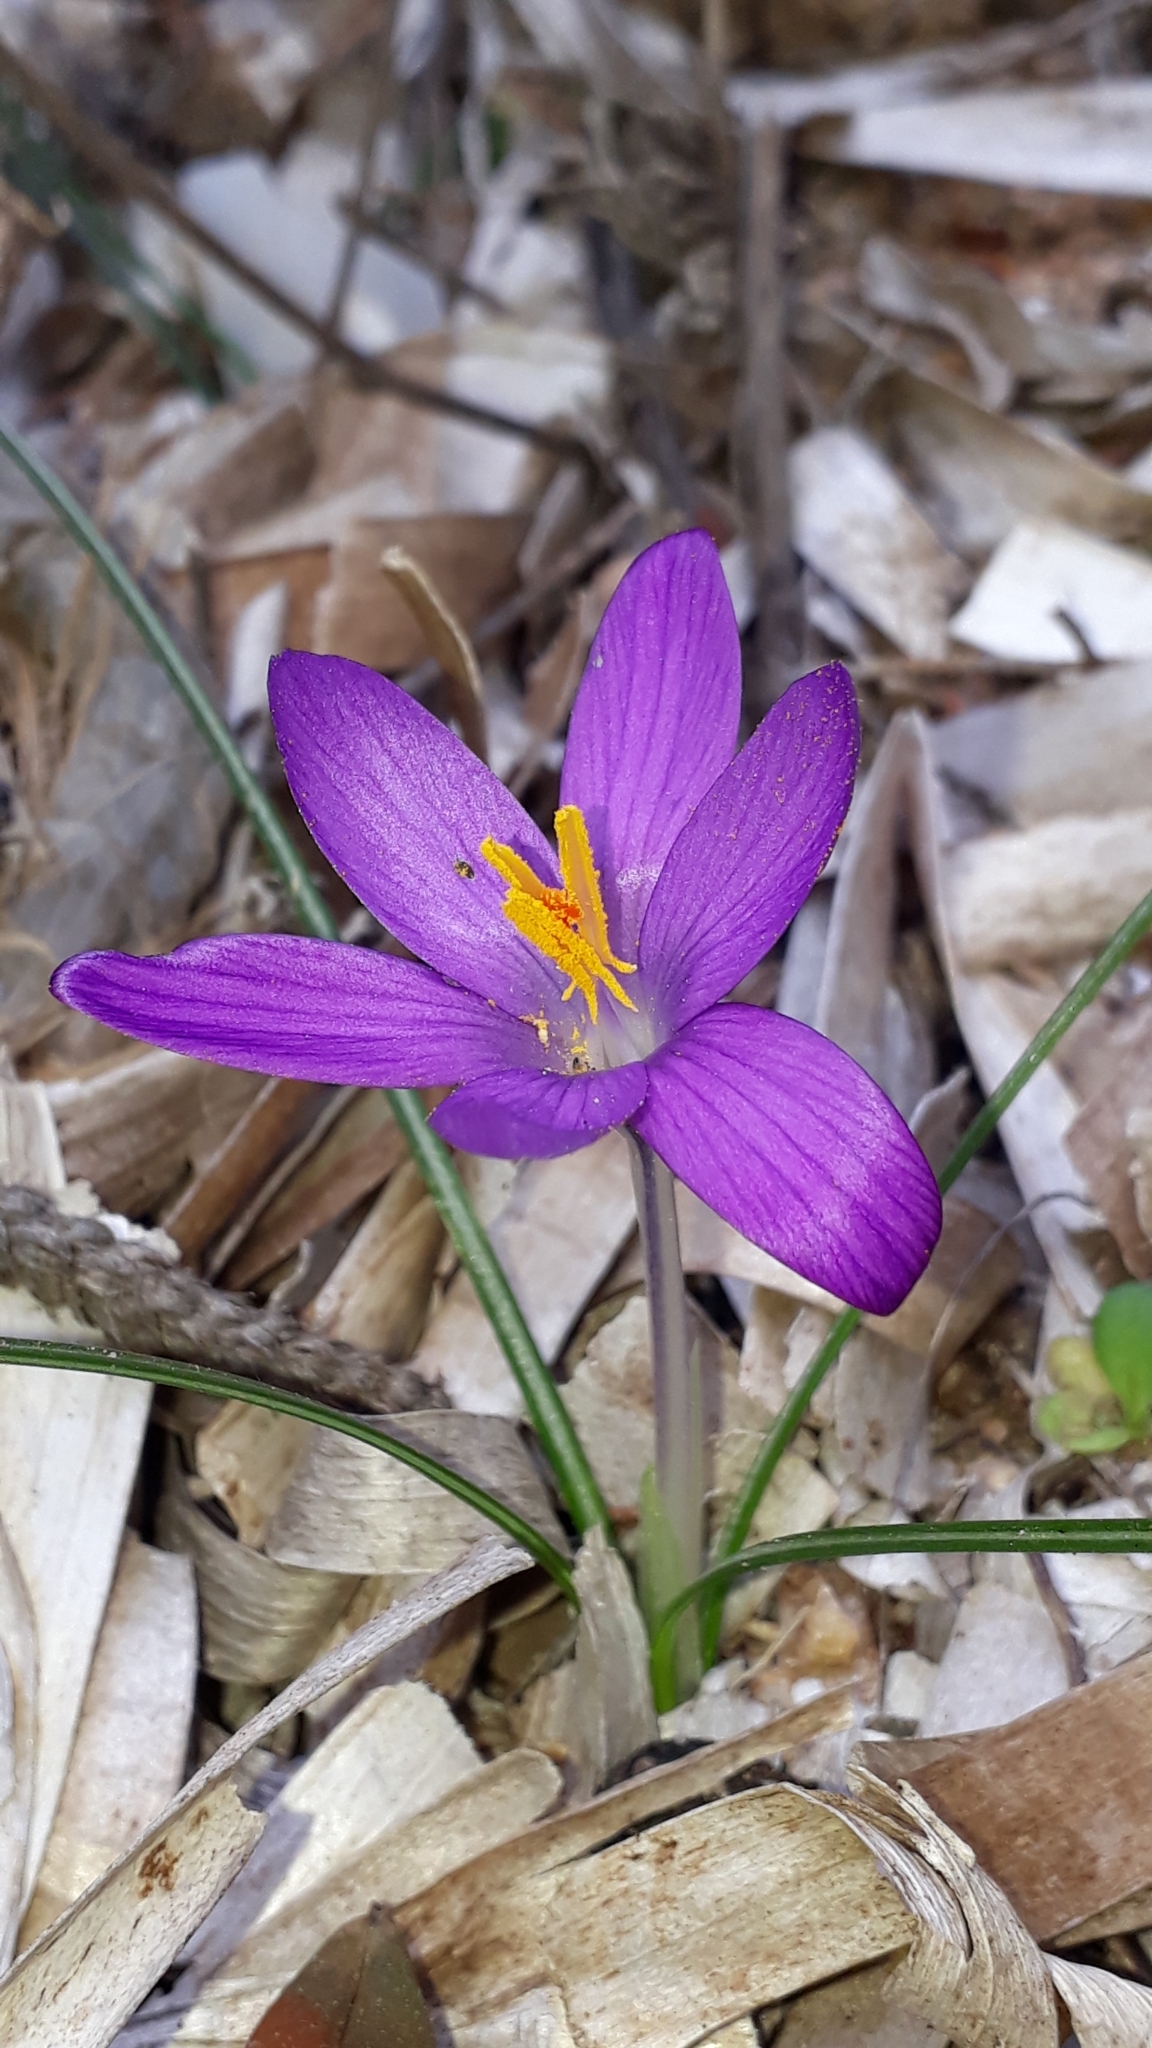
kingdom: Plantae
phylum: Tracheophyta
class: Liliopsida
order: Asparagales
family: Iridaceae
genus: Crocus
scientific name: Crocus corsicus
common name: Corsican crocus
